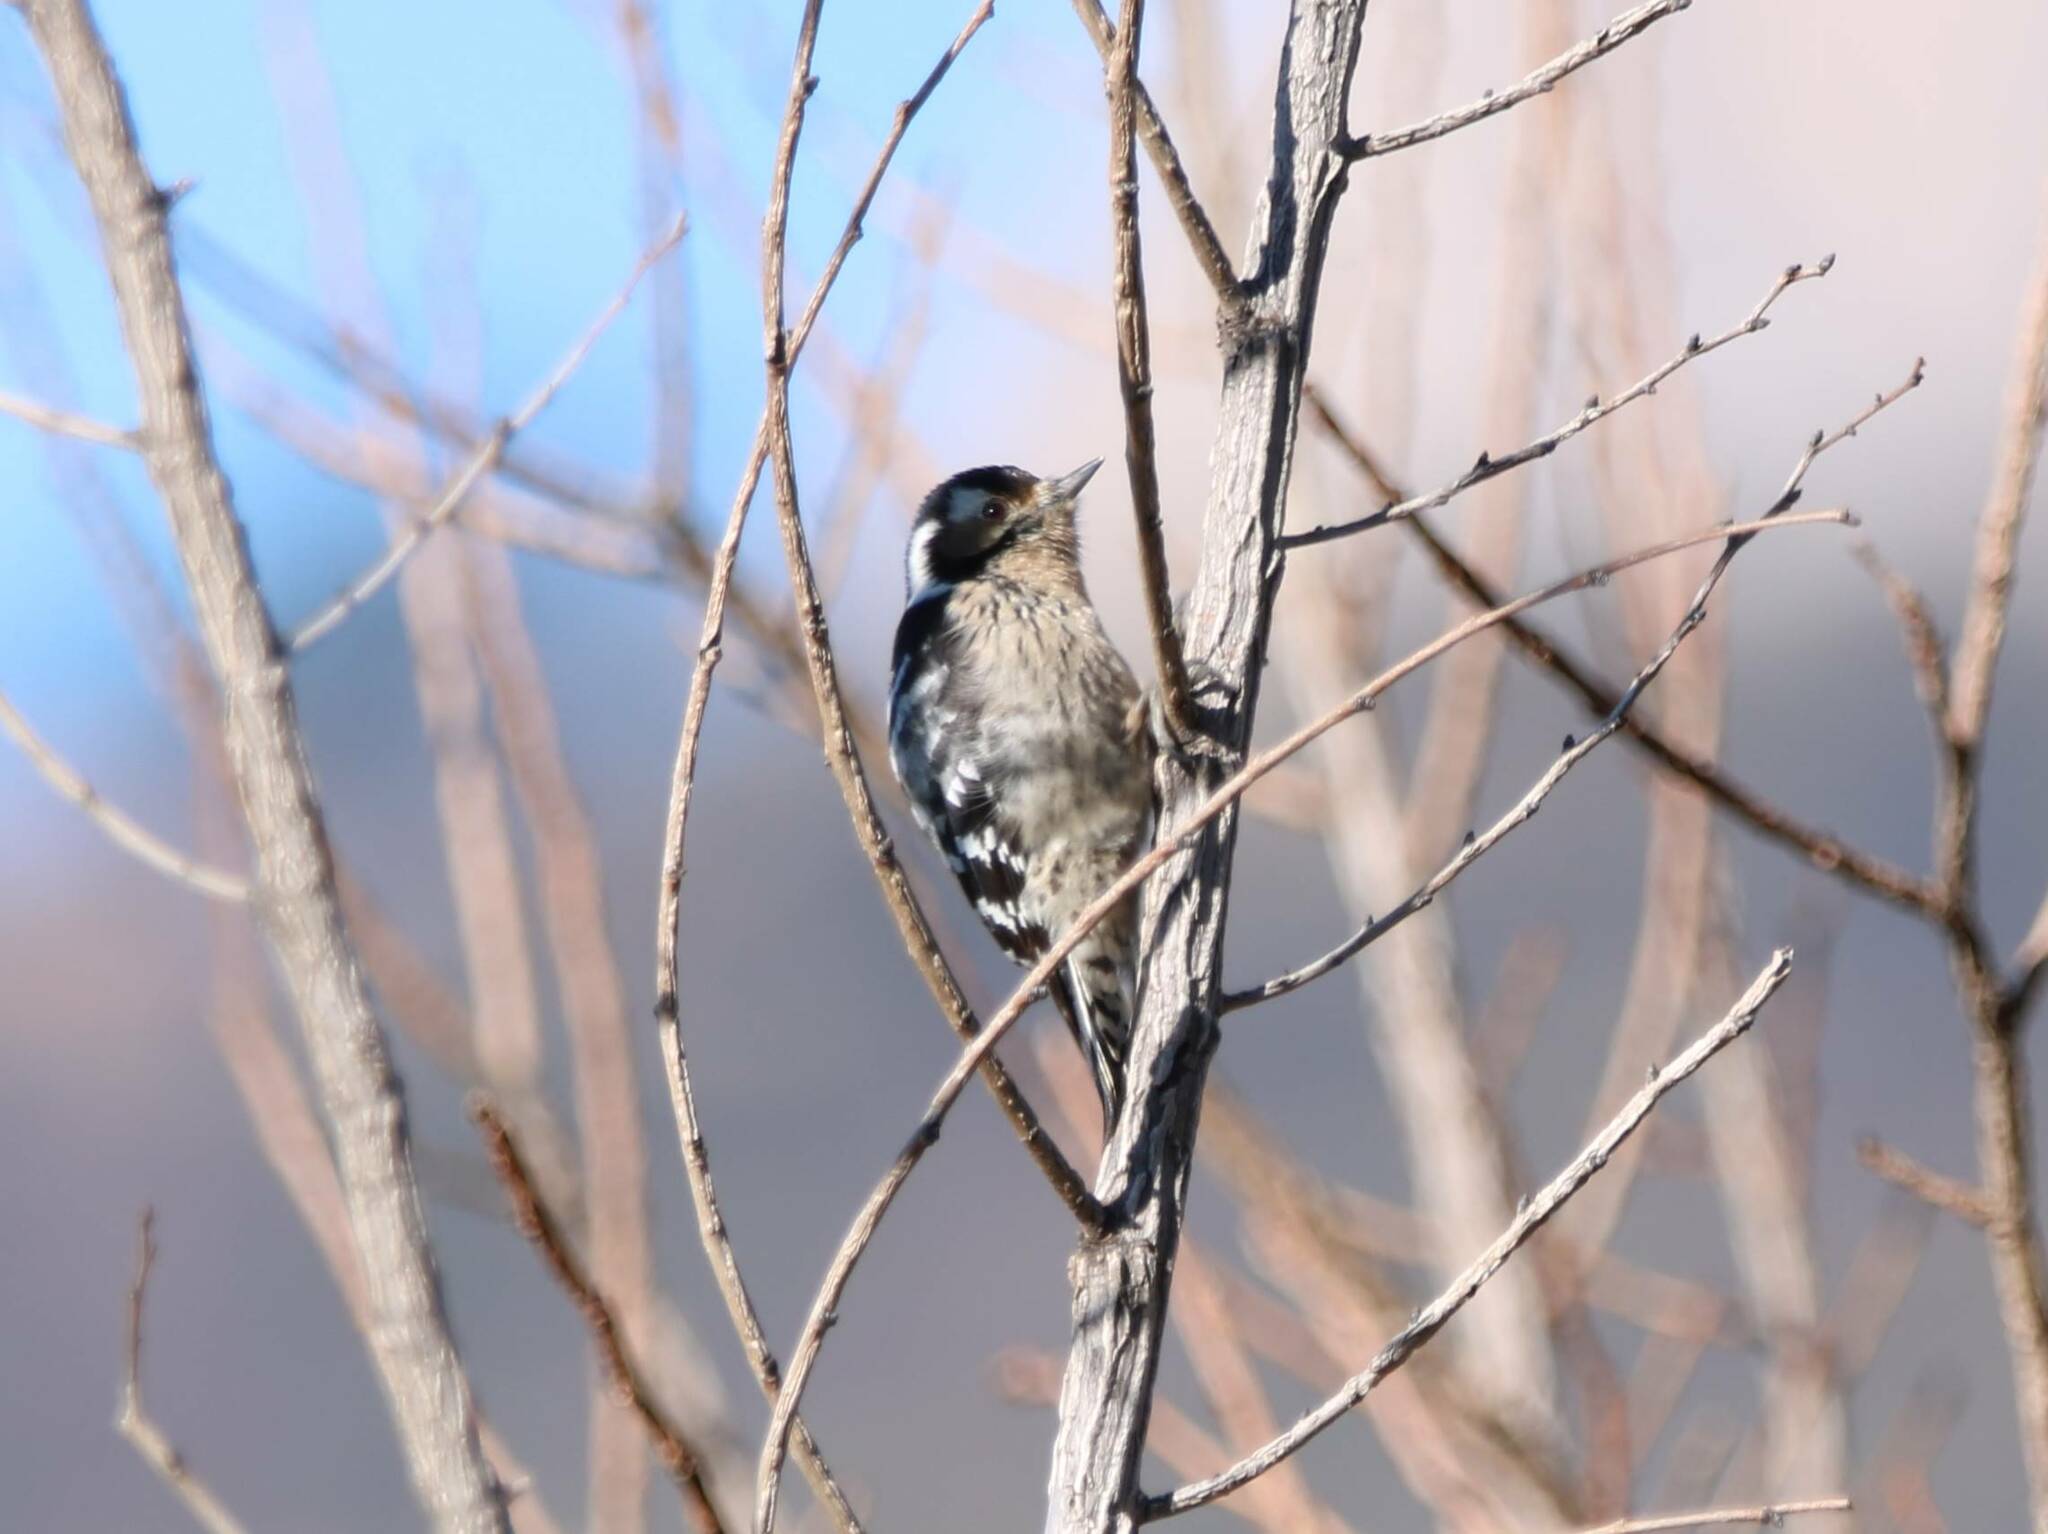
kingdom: Animalia
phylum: Chordata
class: Aves
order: Piciformes
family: Picidae
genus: Dryobates
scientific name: Dryobates minor
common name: Lesser spotted woodpecker
